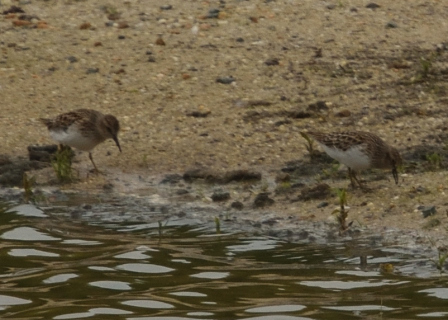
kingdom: Animalia
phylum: Chordata
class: Aves
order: Charadriiformes
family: Scolopacidae
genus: Calidris
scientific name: Calidris minutilla
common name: Least sandpiper
